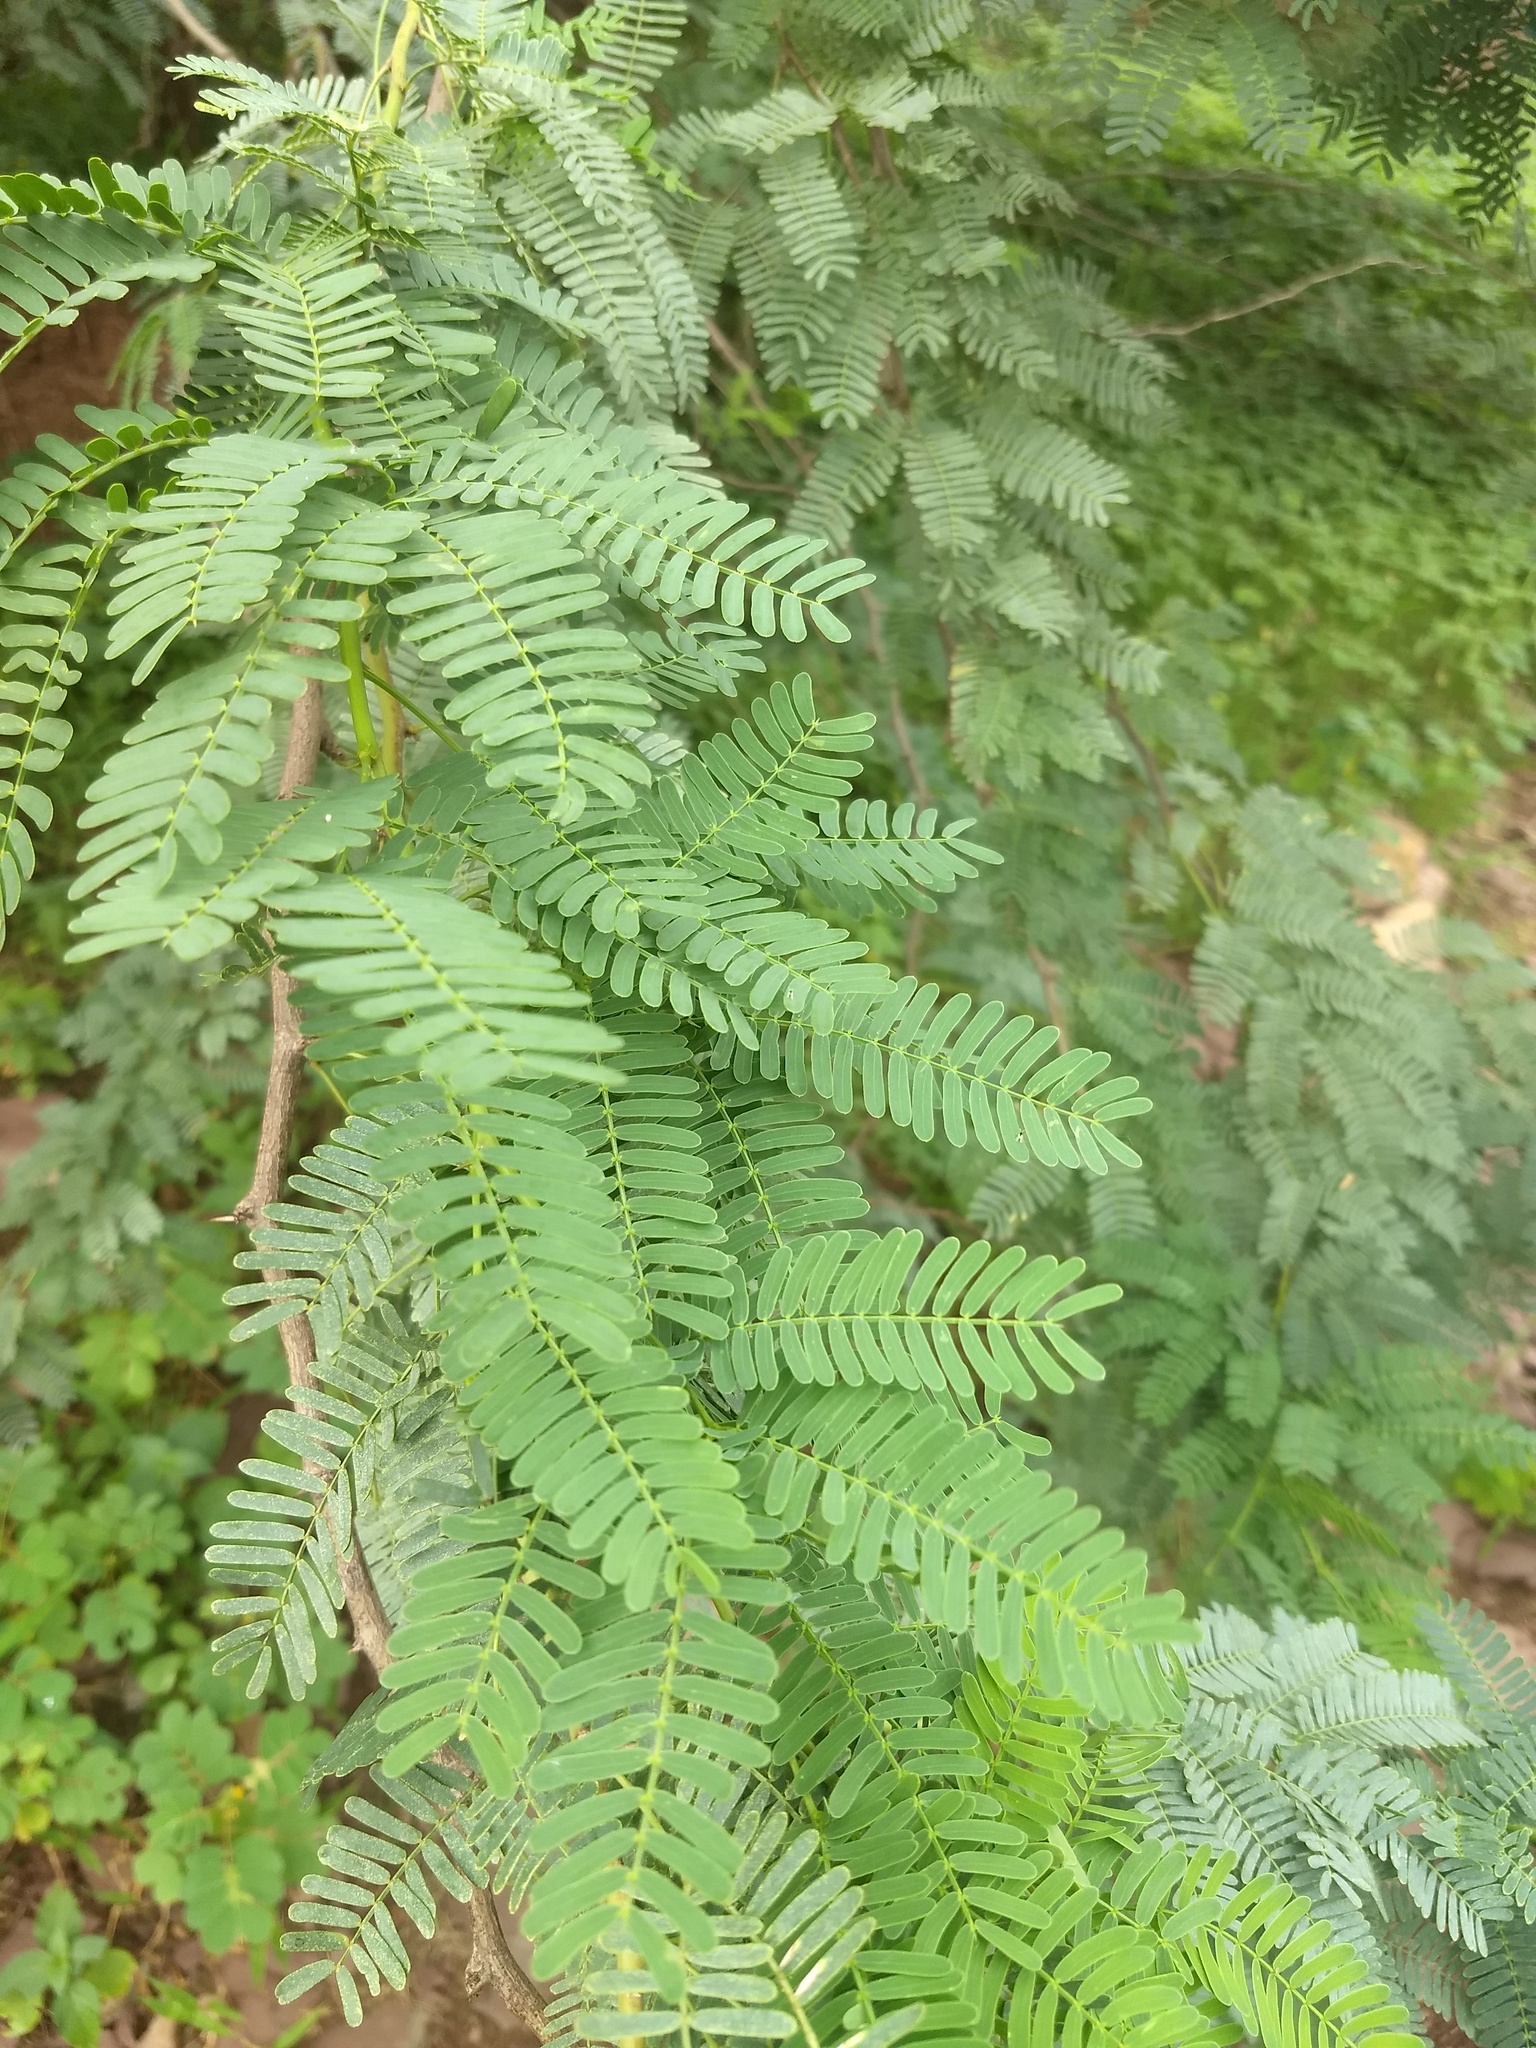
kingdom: Plantae
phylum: Tracheophyta
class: Magnoliopsida
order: Fabales
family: Fabaceae
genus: Prosopis
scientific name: Prosopis juliflora
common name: Mesquite
